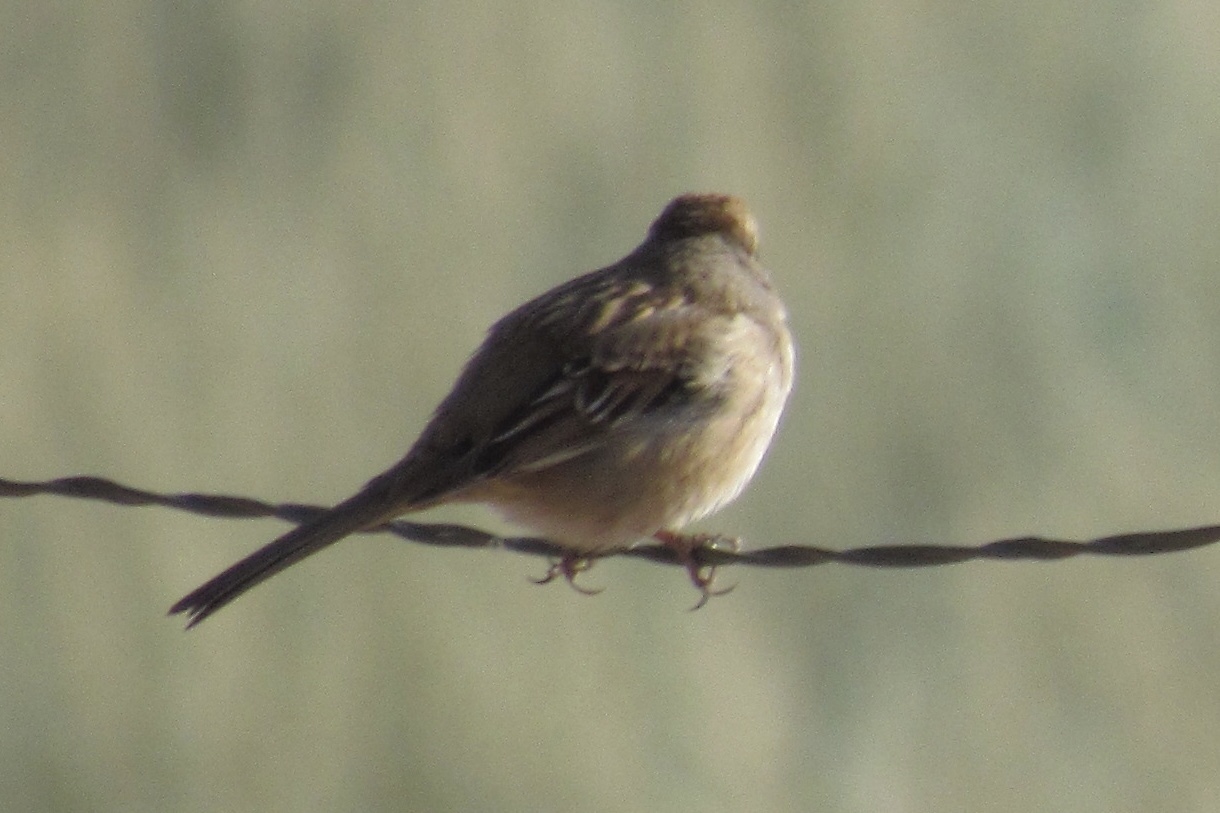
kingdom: Animalia
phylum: Chordata
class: Aves
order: Passeriformes
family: Passerellidae
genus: Zonotrichia
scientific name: Zonotrichia leucophrys
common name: White-crowned sparrow
